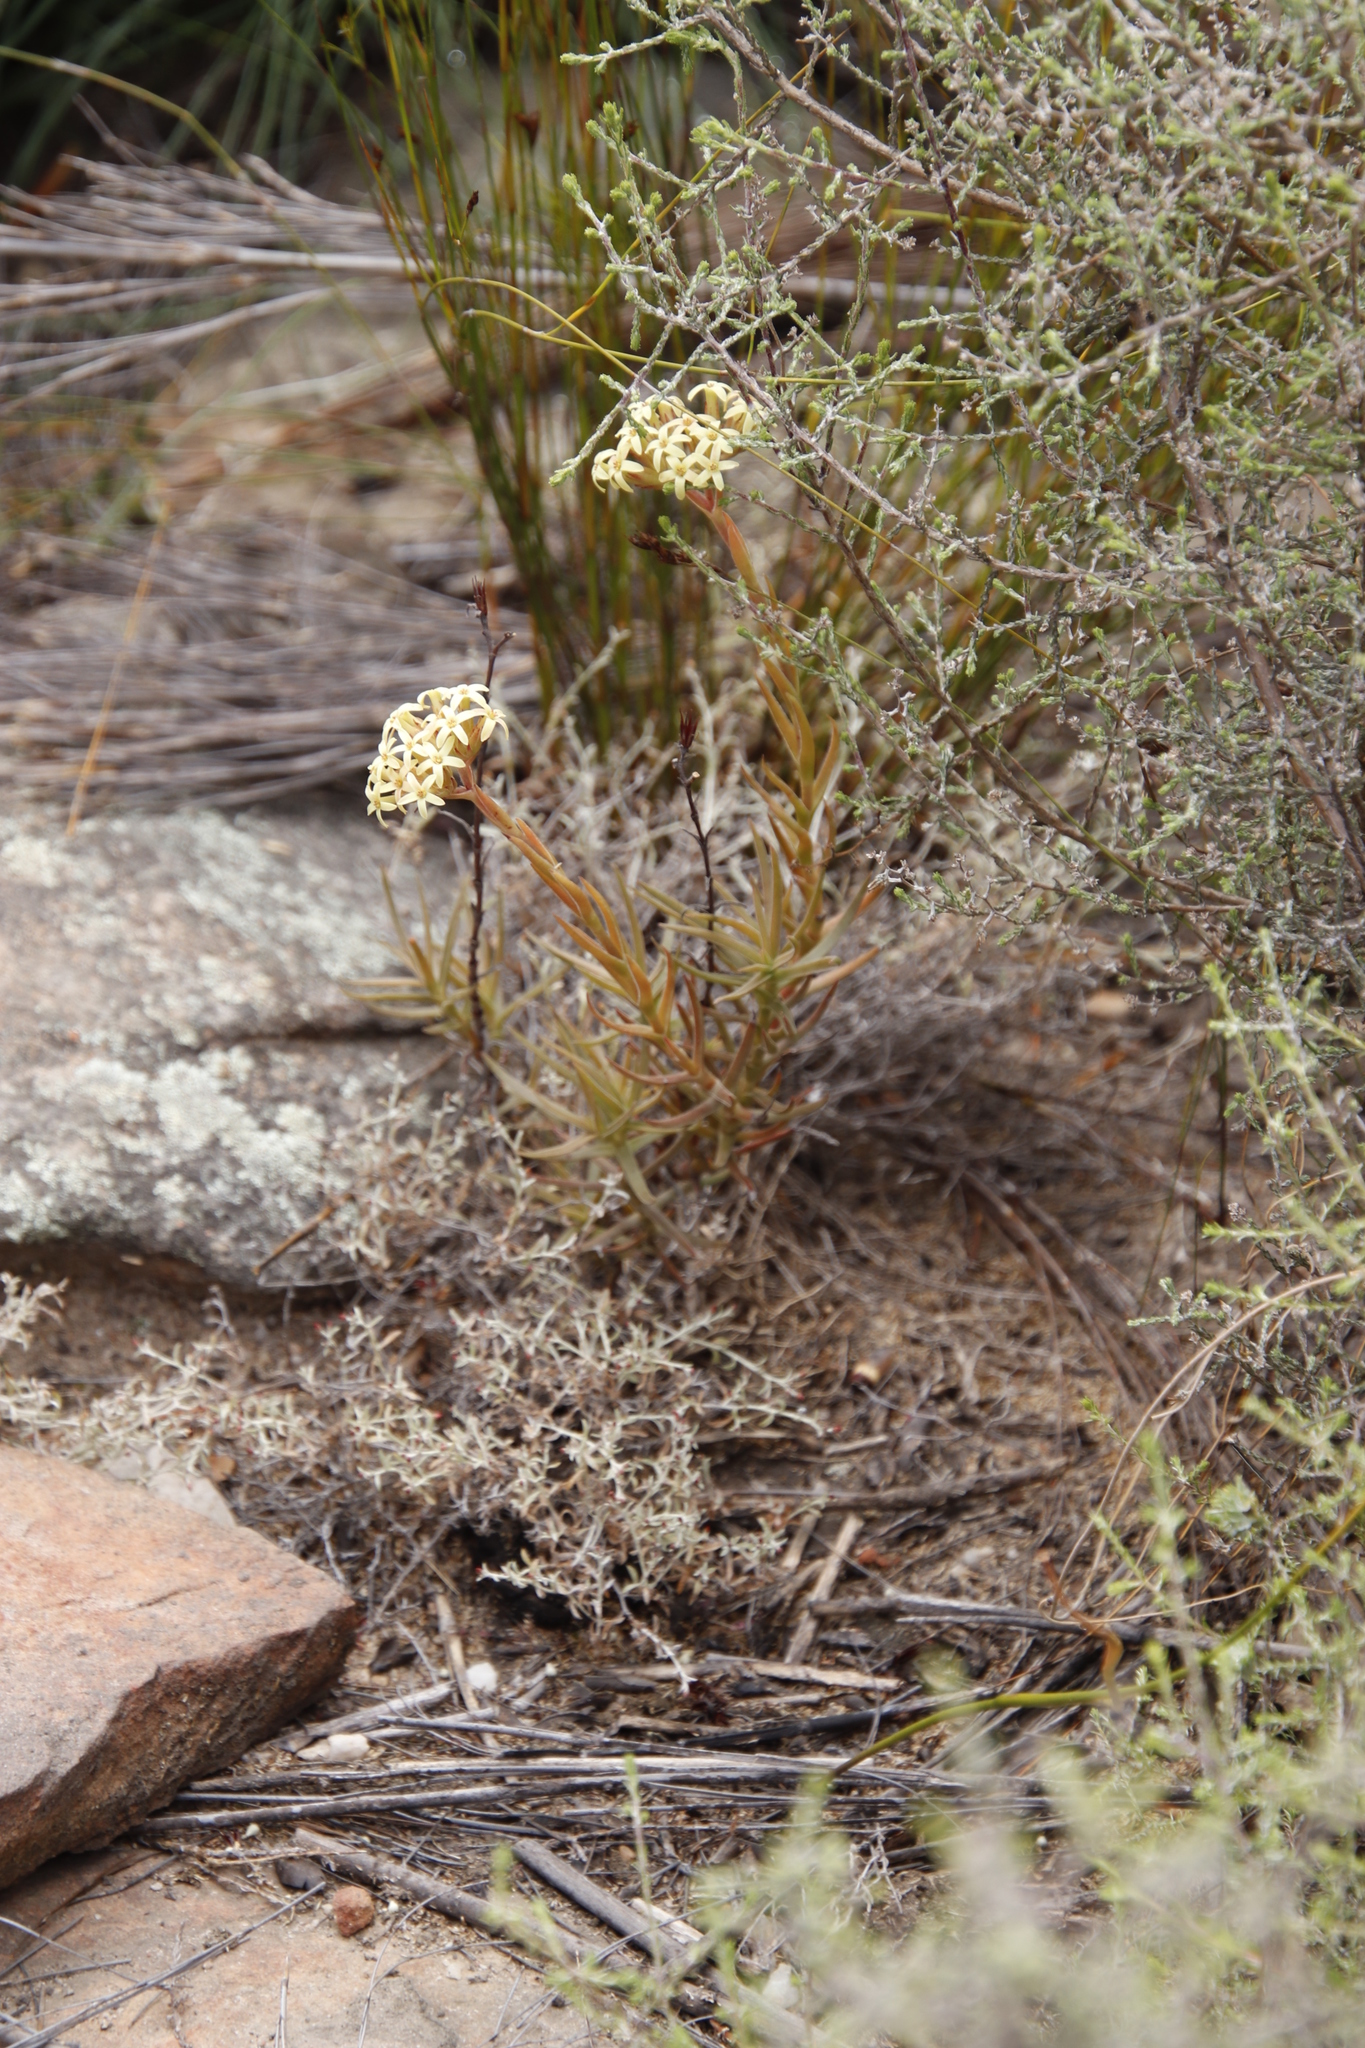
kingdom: Plantae
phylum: Tracheophyta
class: Magnoliopsida
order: Saxifragales
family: Crassulaceae
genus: Crassula
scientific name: Crassula fascicularis
